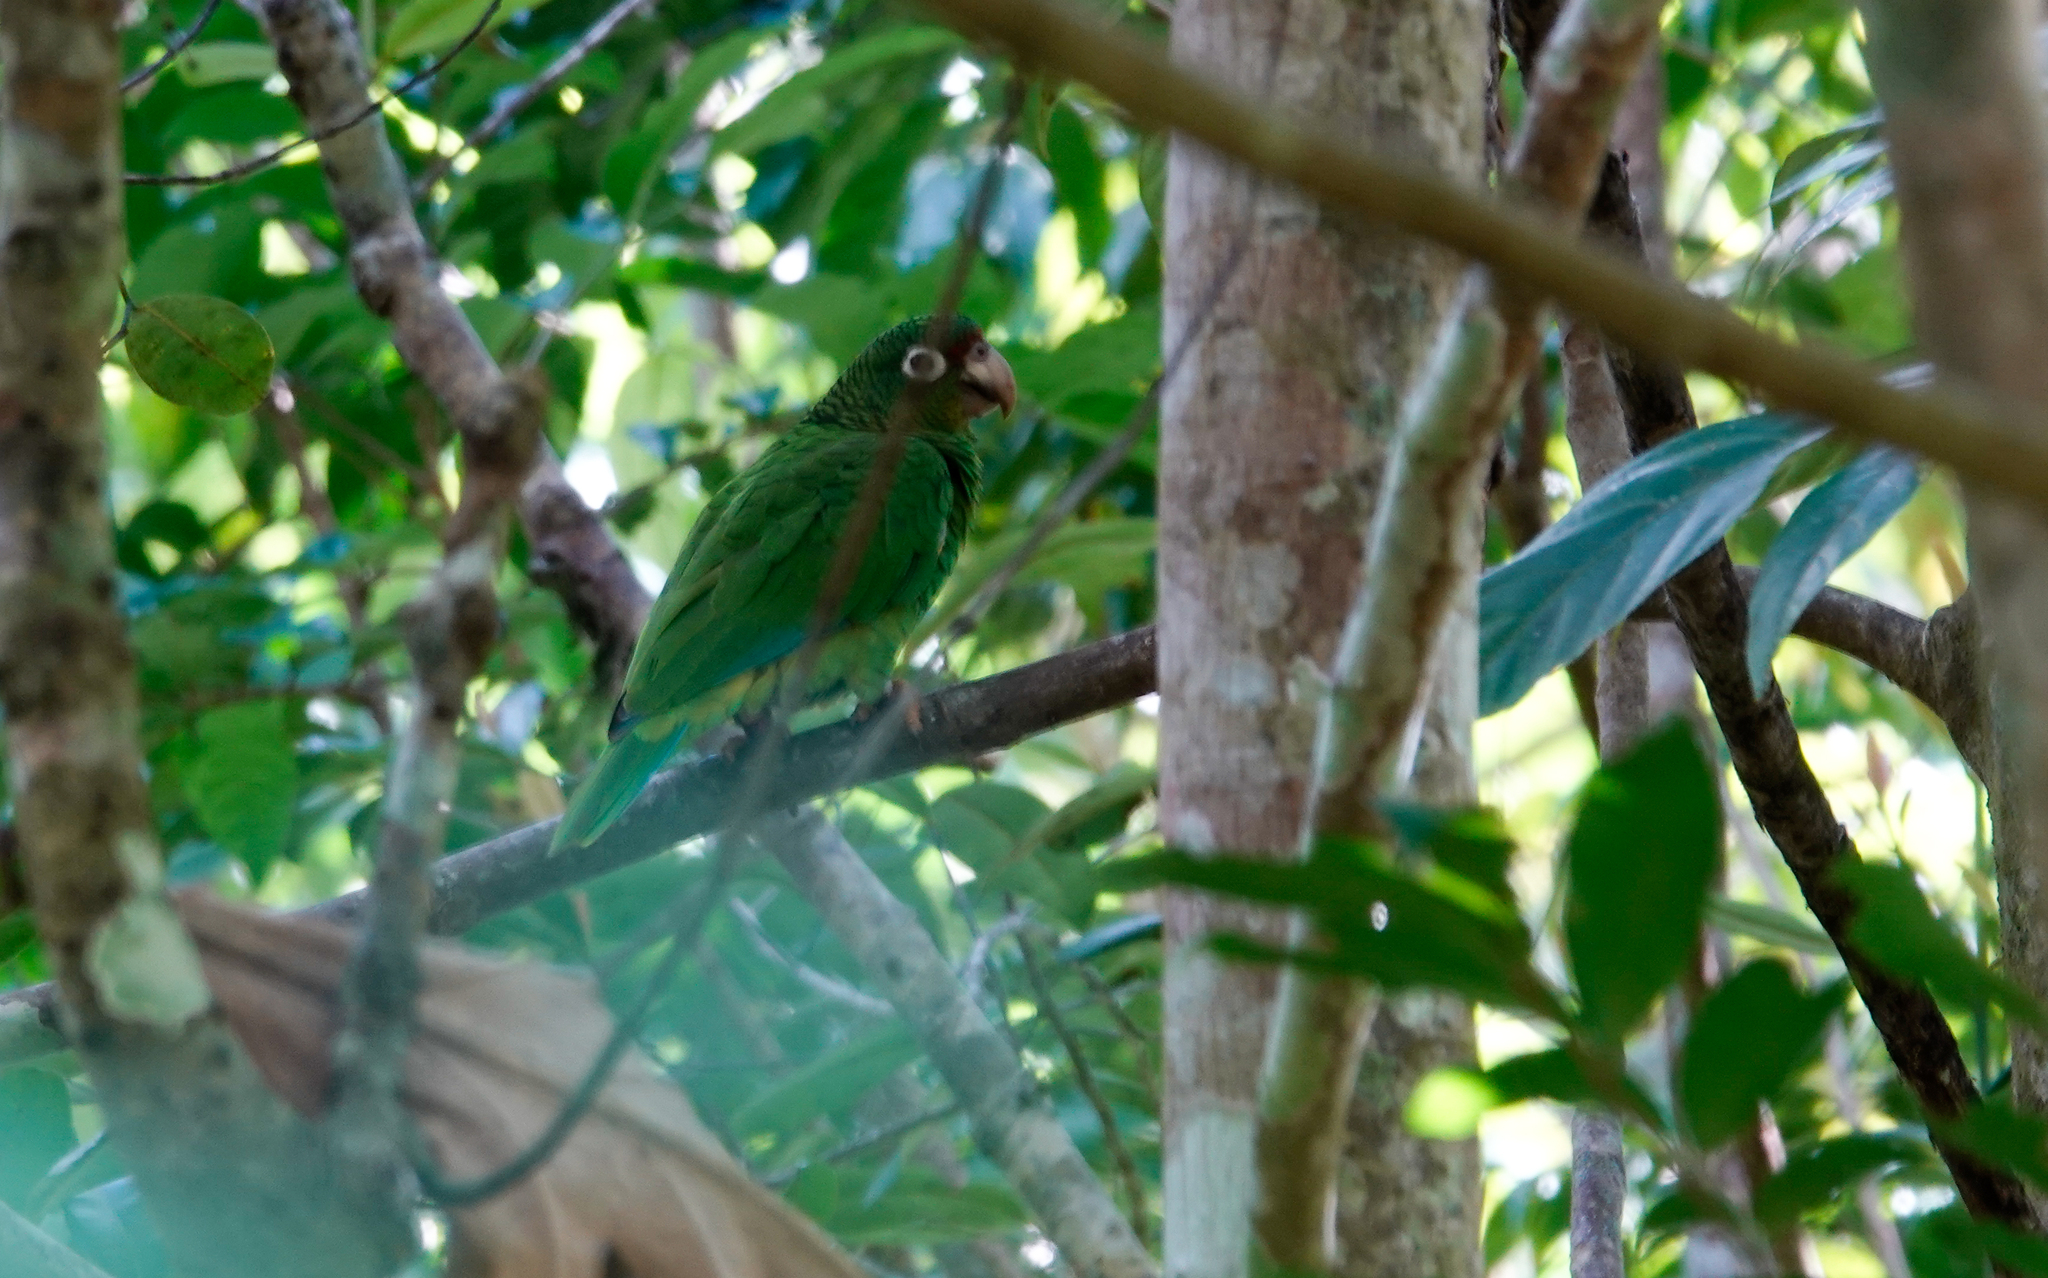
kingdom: Animalia
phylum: Chordata
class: Aves
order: Psittaciformes
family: Psittacidae
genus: Amazona
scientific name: Amazona vittata
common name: Puerto rican amazon
